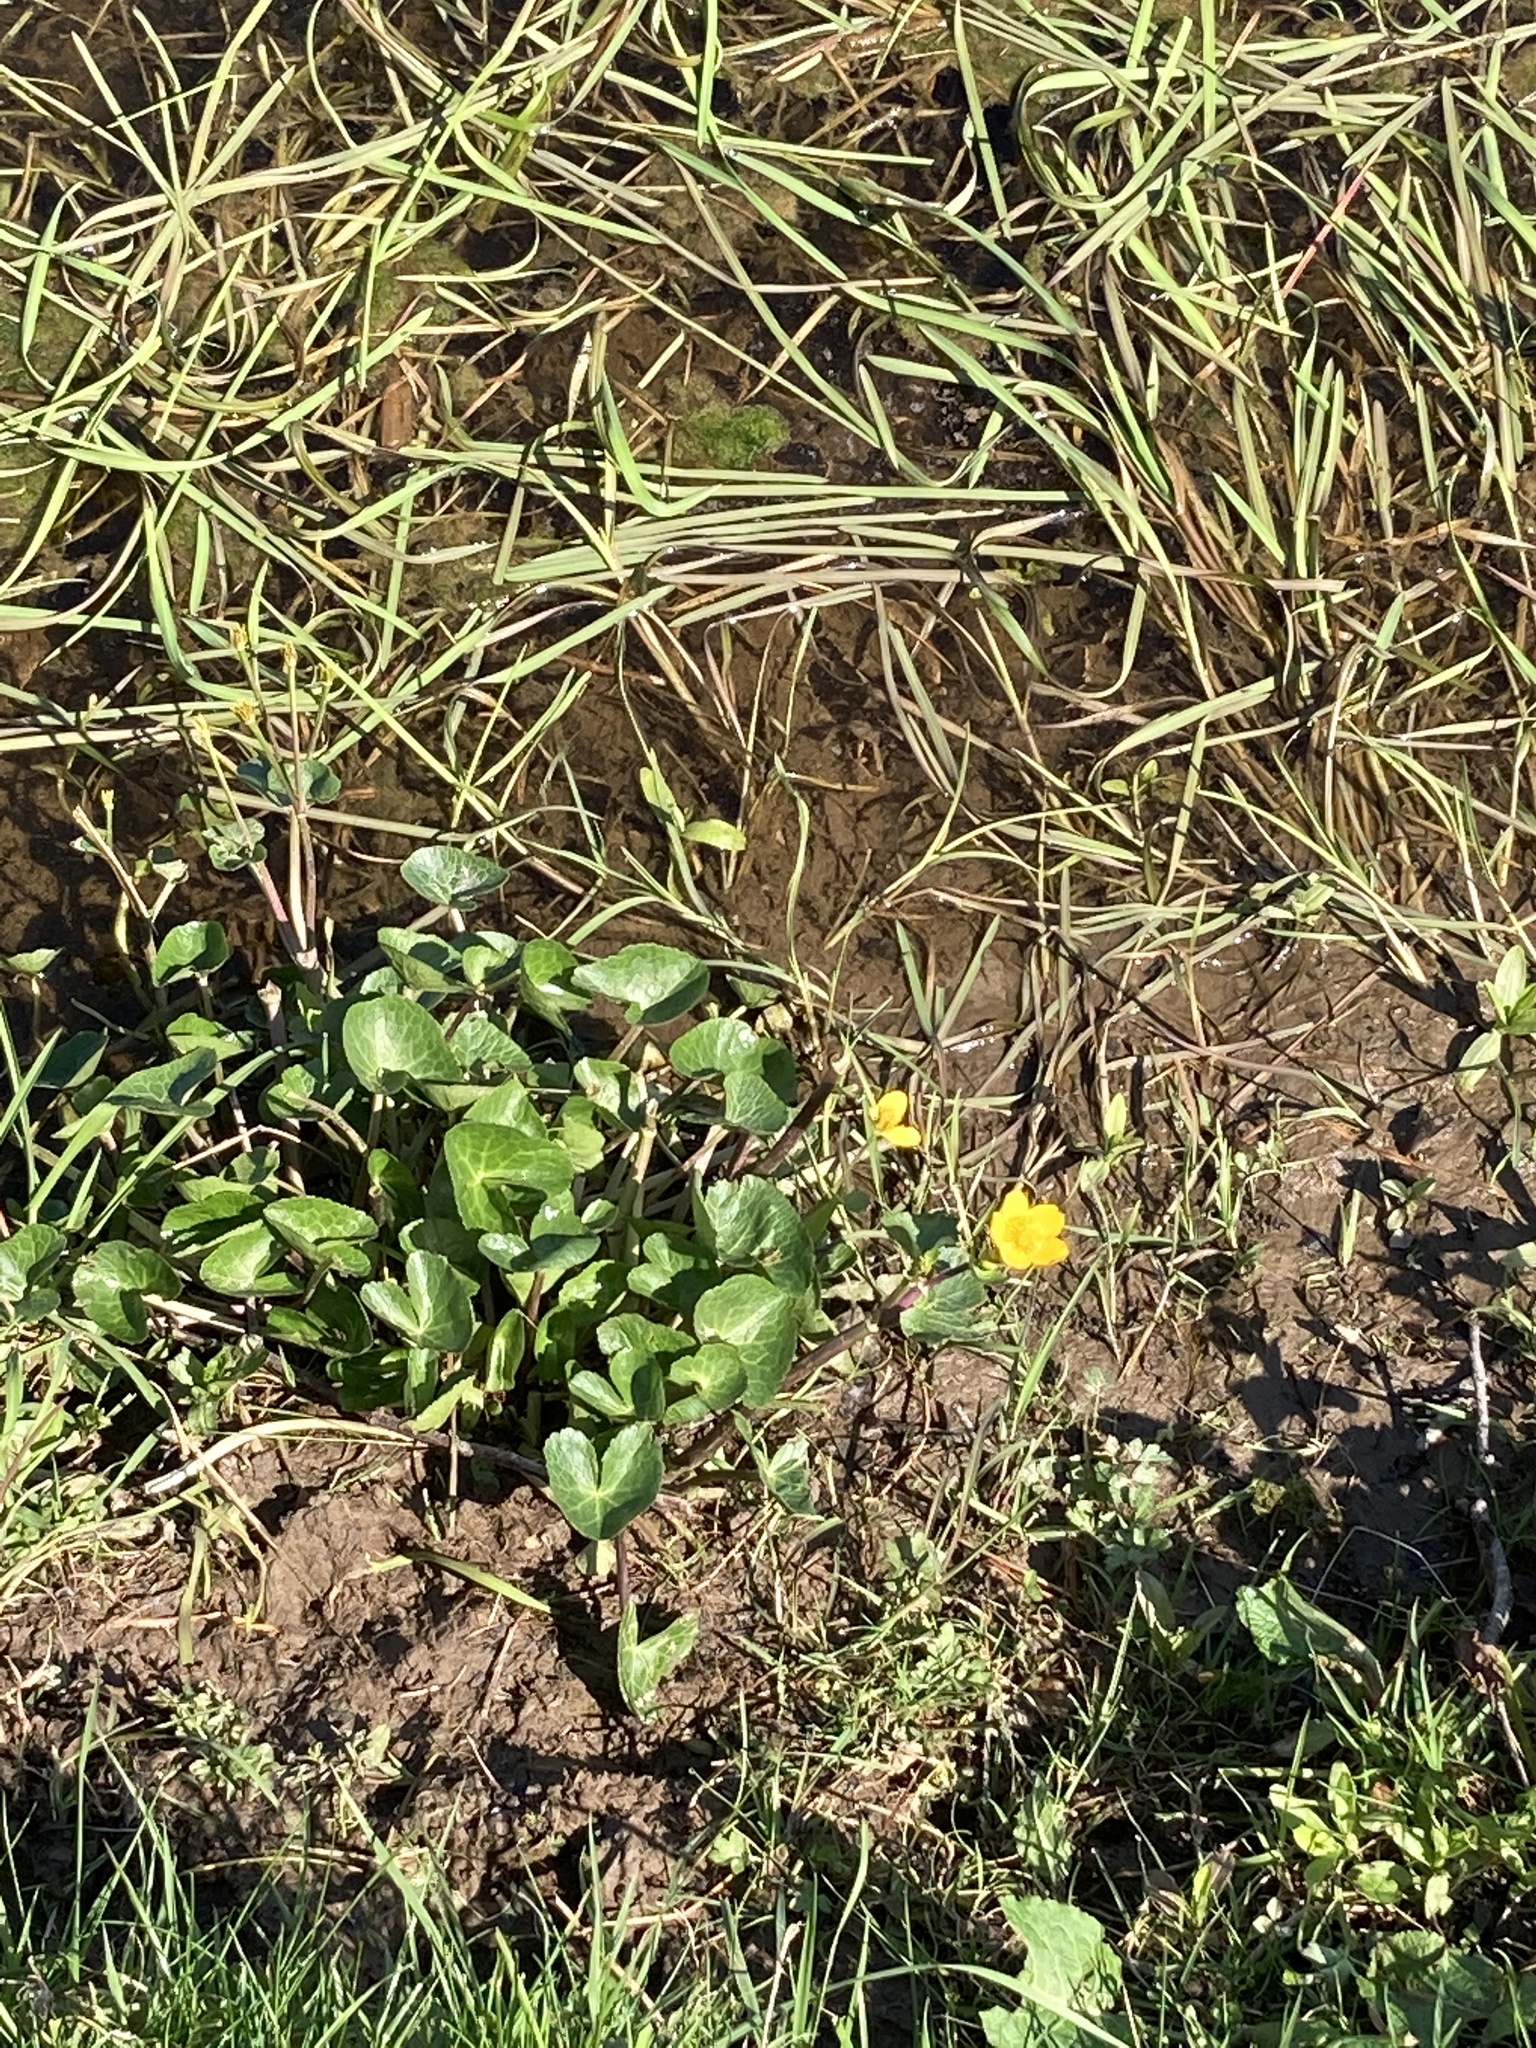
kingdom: Plantae
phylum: Tracheophyta
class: Magnoliopsida
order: Ranunculales
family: Ranunculaceae
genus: Caltha
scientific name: Caltha palustris
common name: Marsh marigold
